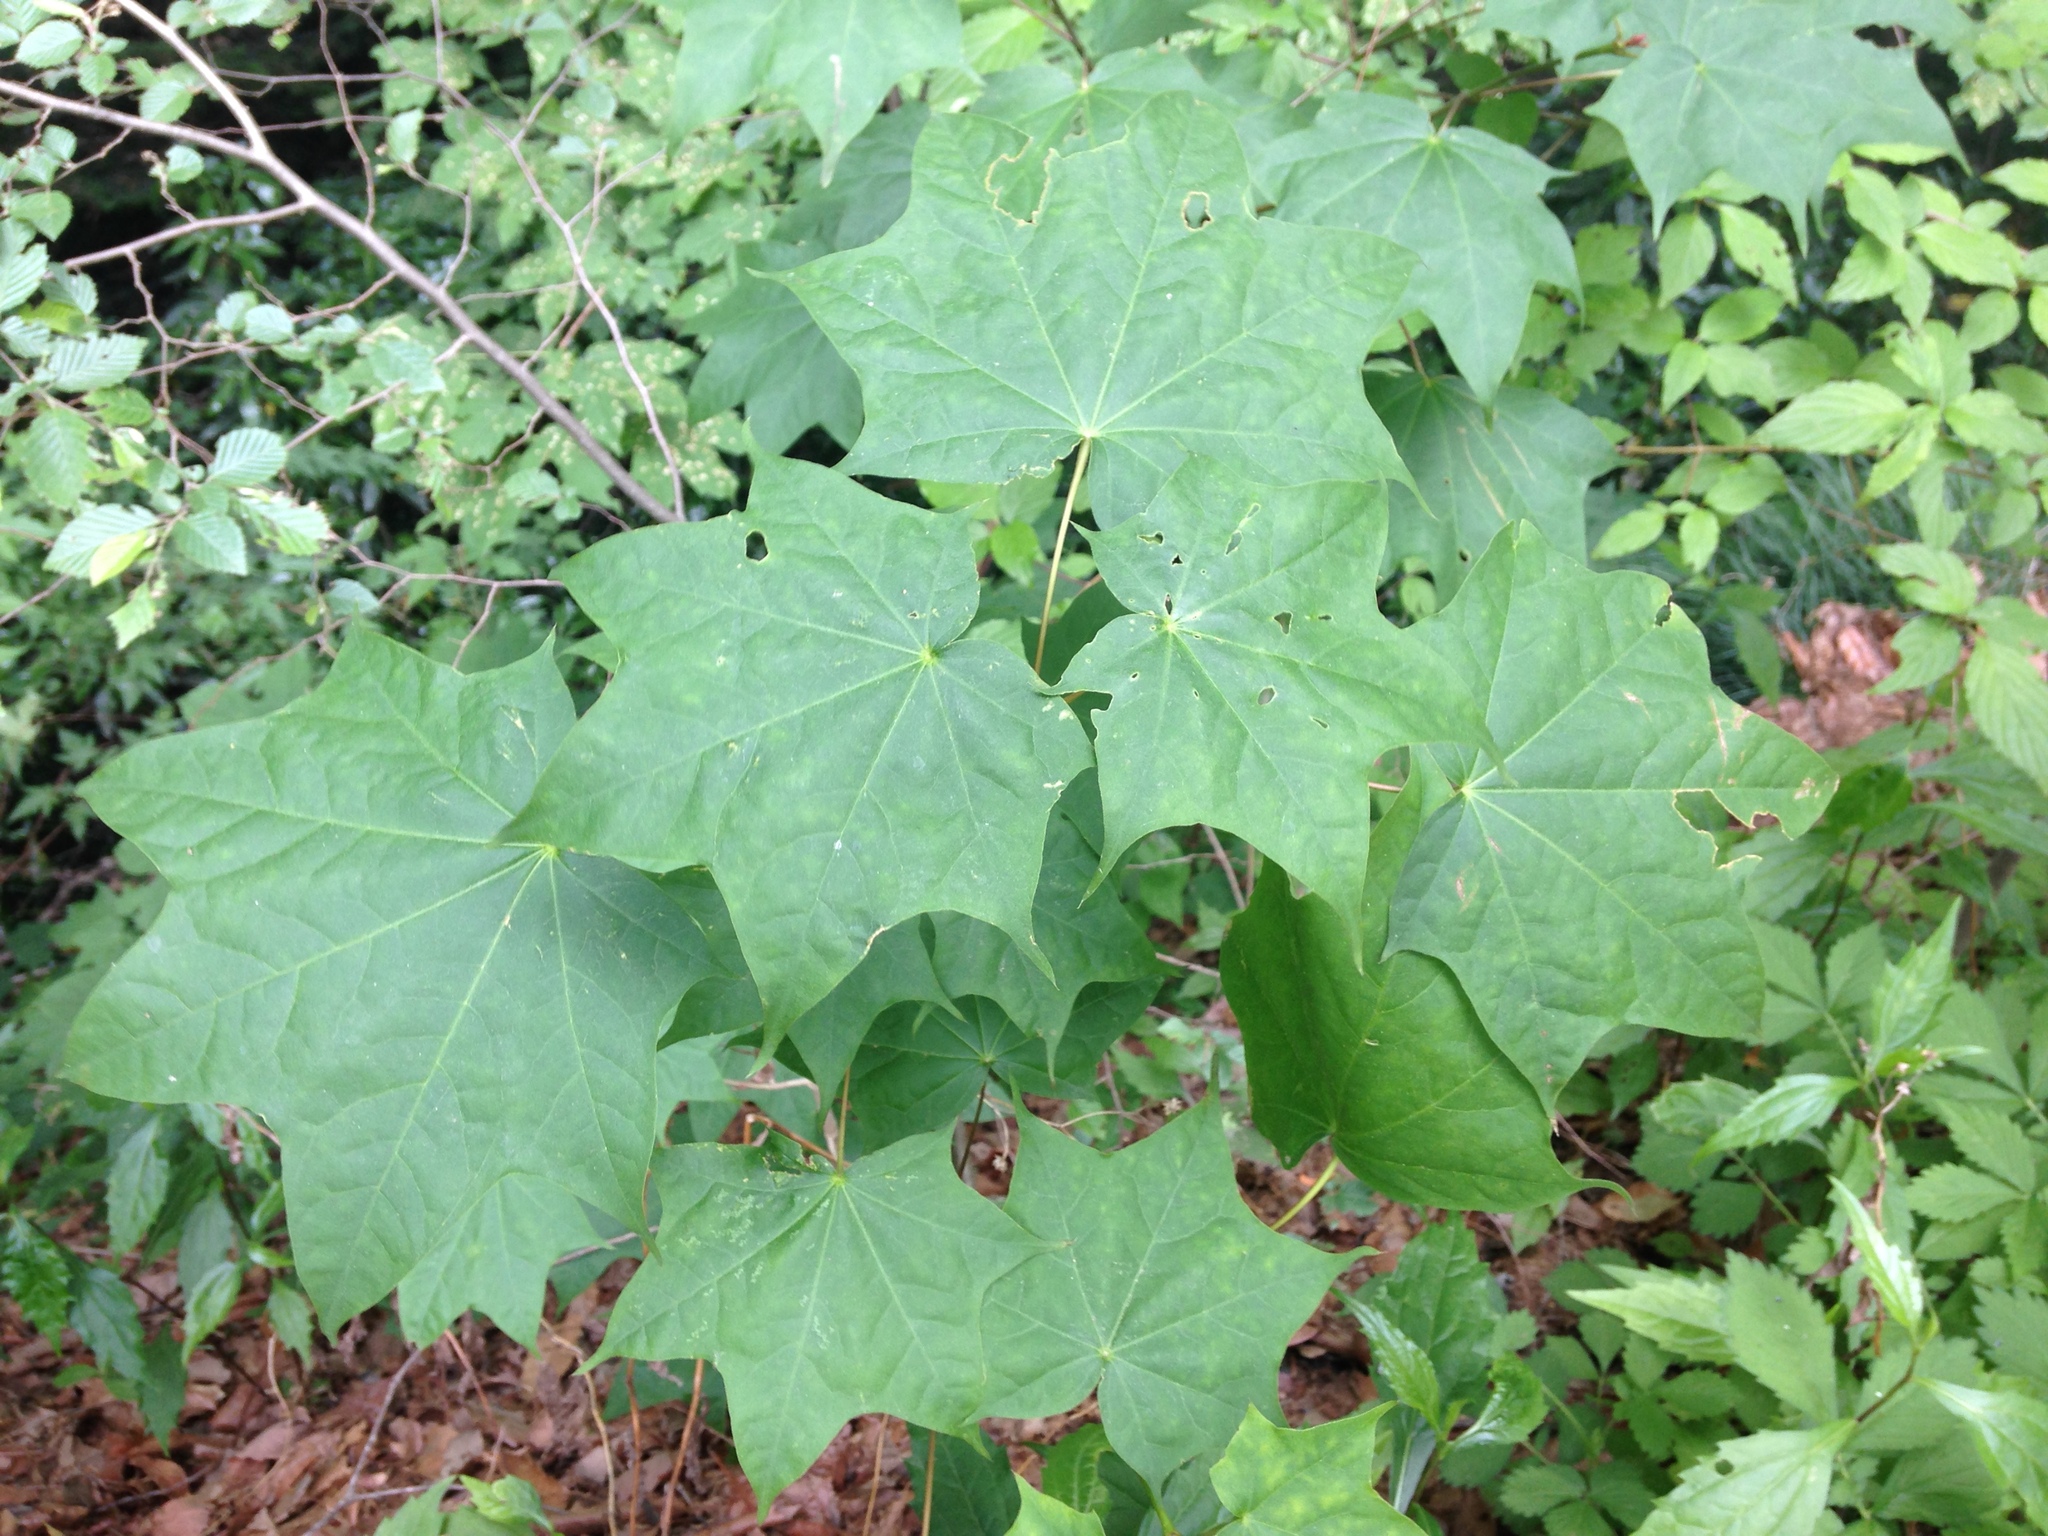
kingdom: Plantae
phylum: Tracheophyta
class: Magnoliopsida
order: Sapindales
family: Sapindaceae
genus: Acer
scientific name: Acer pictum
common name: The painted maple
